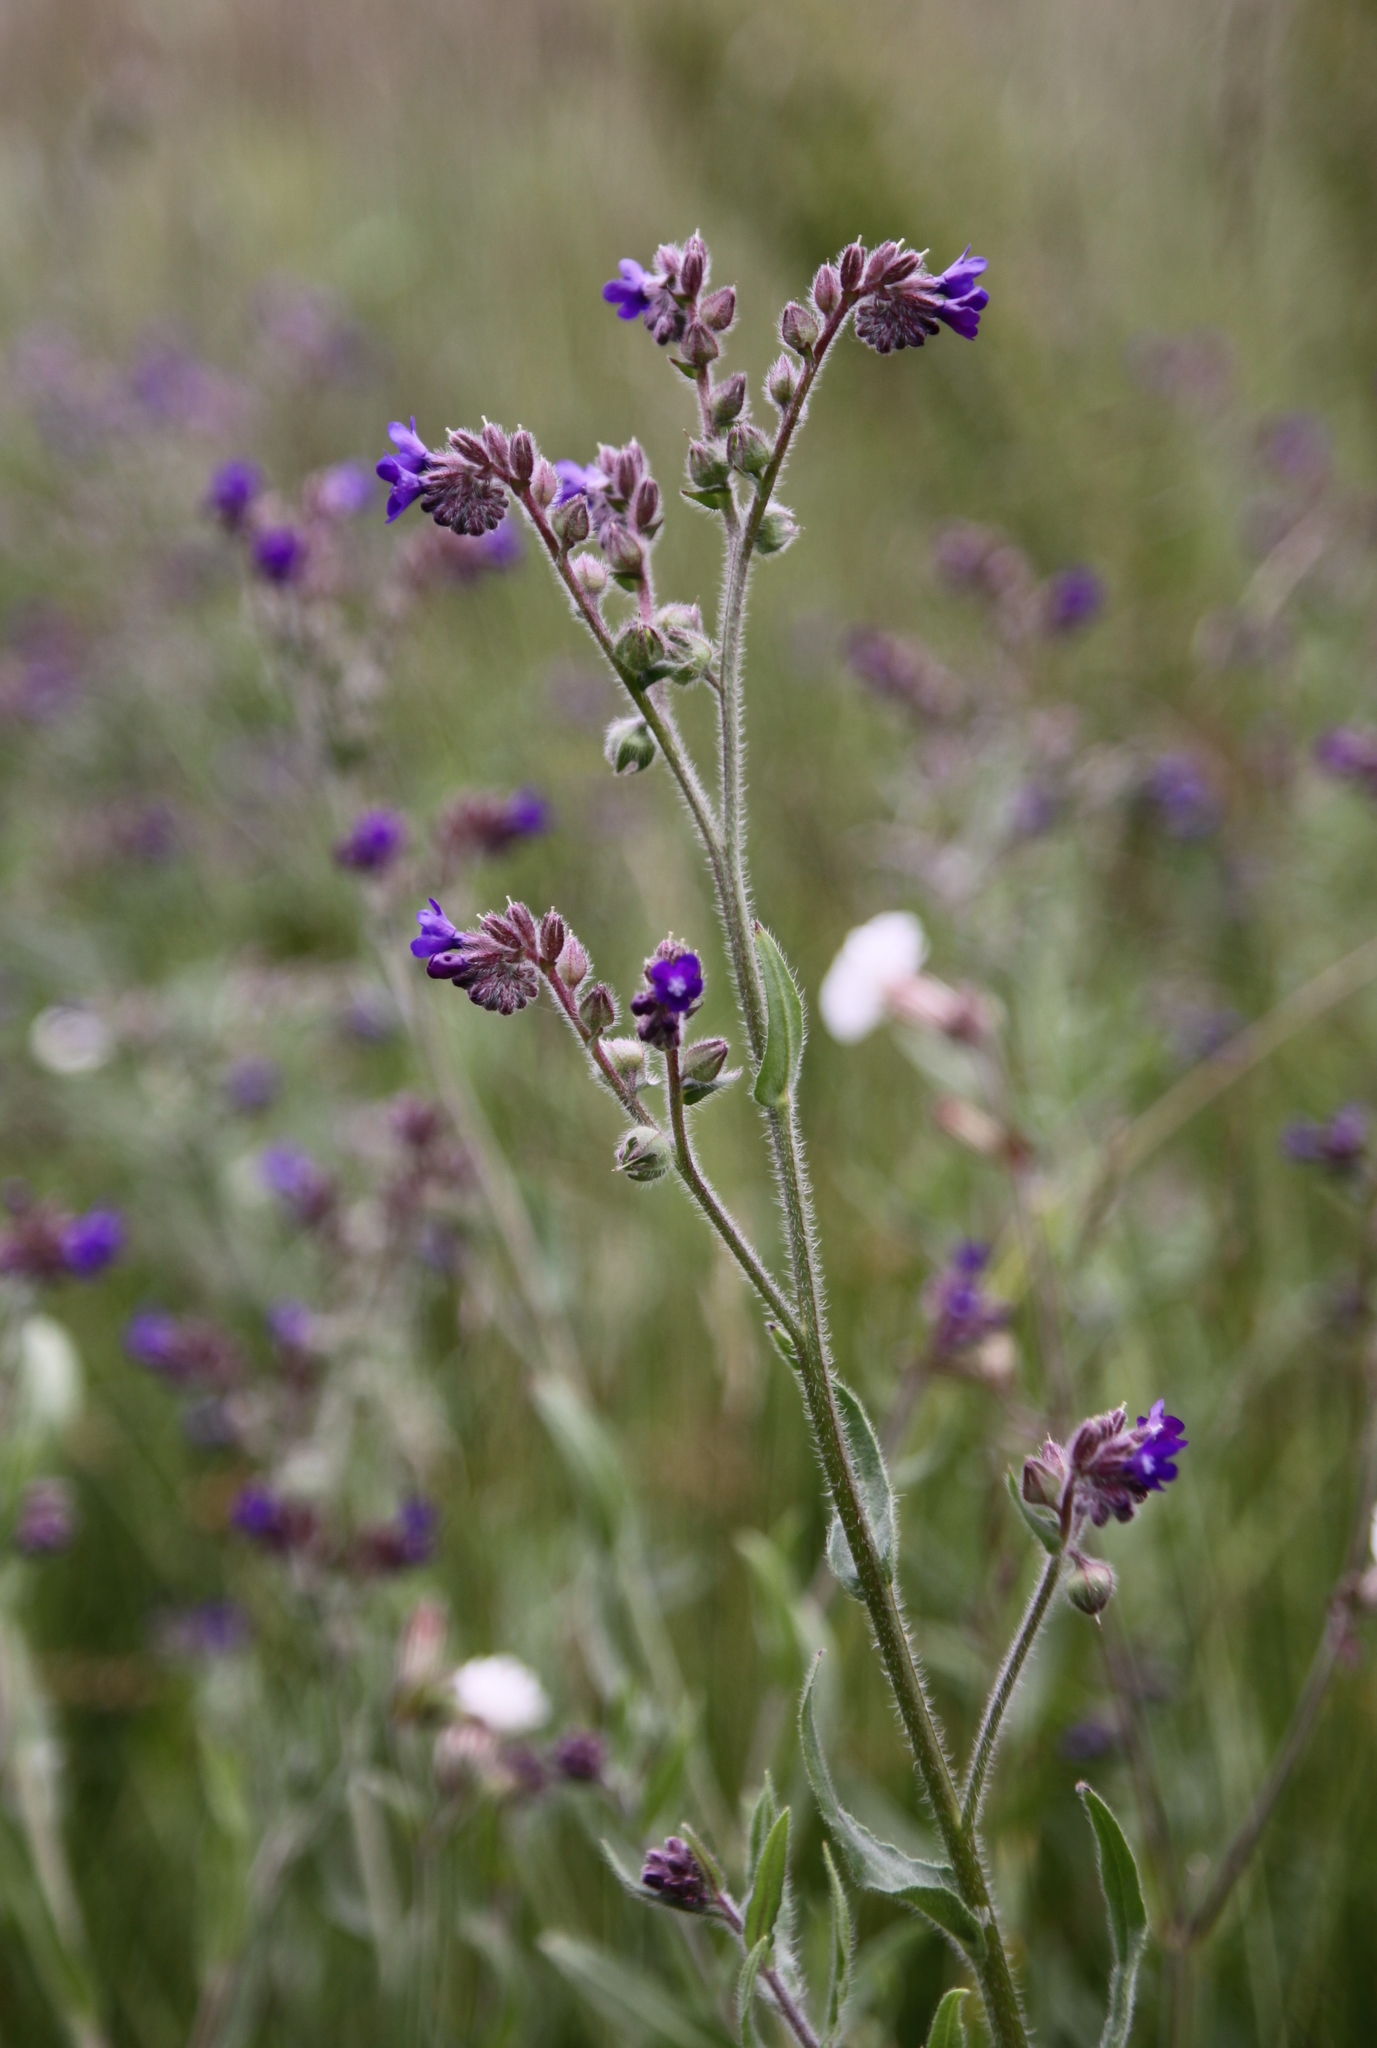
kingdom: Plantae
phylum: Tracheophyta
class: Magnoliopsida
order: Boraginales
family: Boraginaceae
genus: Anchusa
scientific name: Anchusa officinalis
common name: Alkanet
